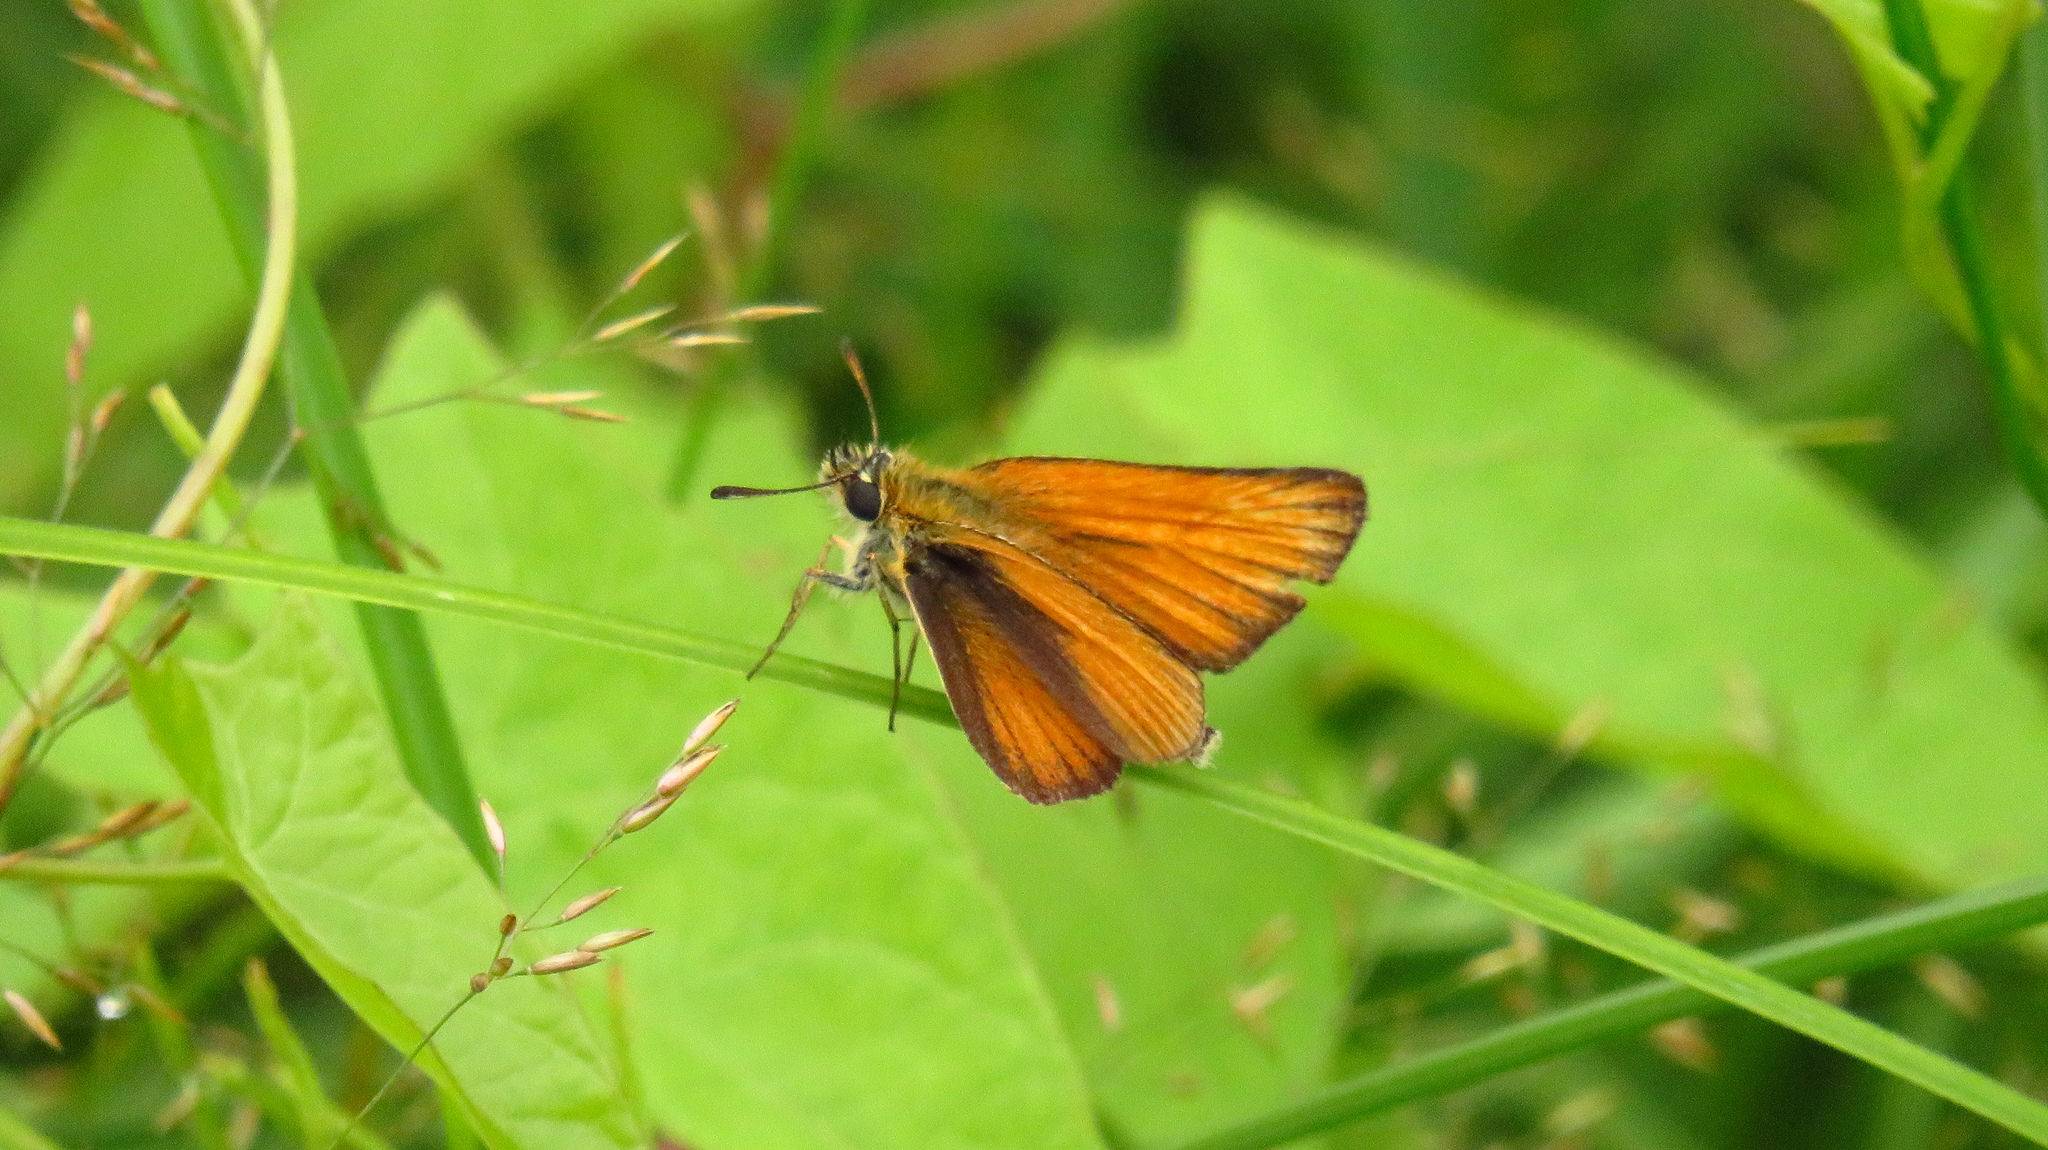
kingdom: Animalia
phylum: Arthropoda
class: Insecta
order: Lepidoptera
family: Hesperiidae
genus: Thymelicus
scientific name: Thymelicus lineola
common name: Essex skipper
